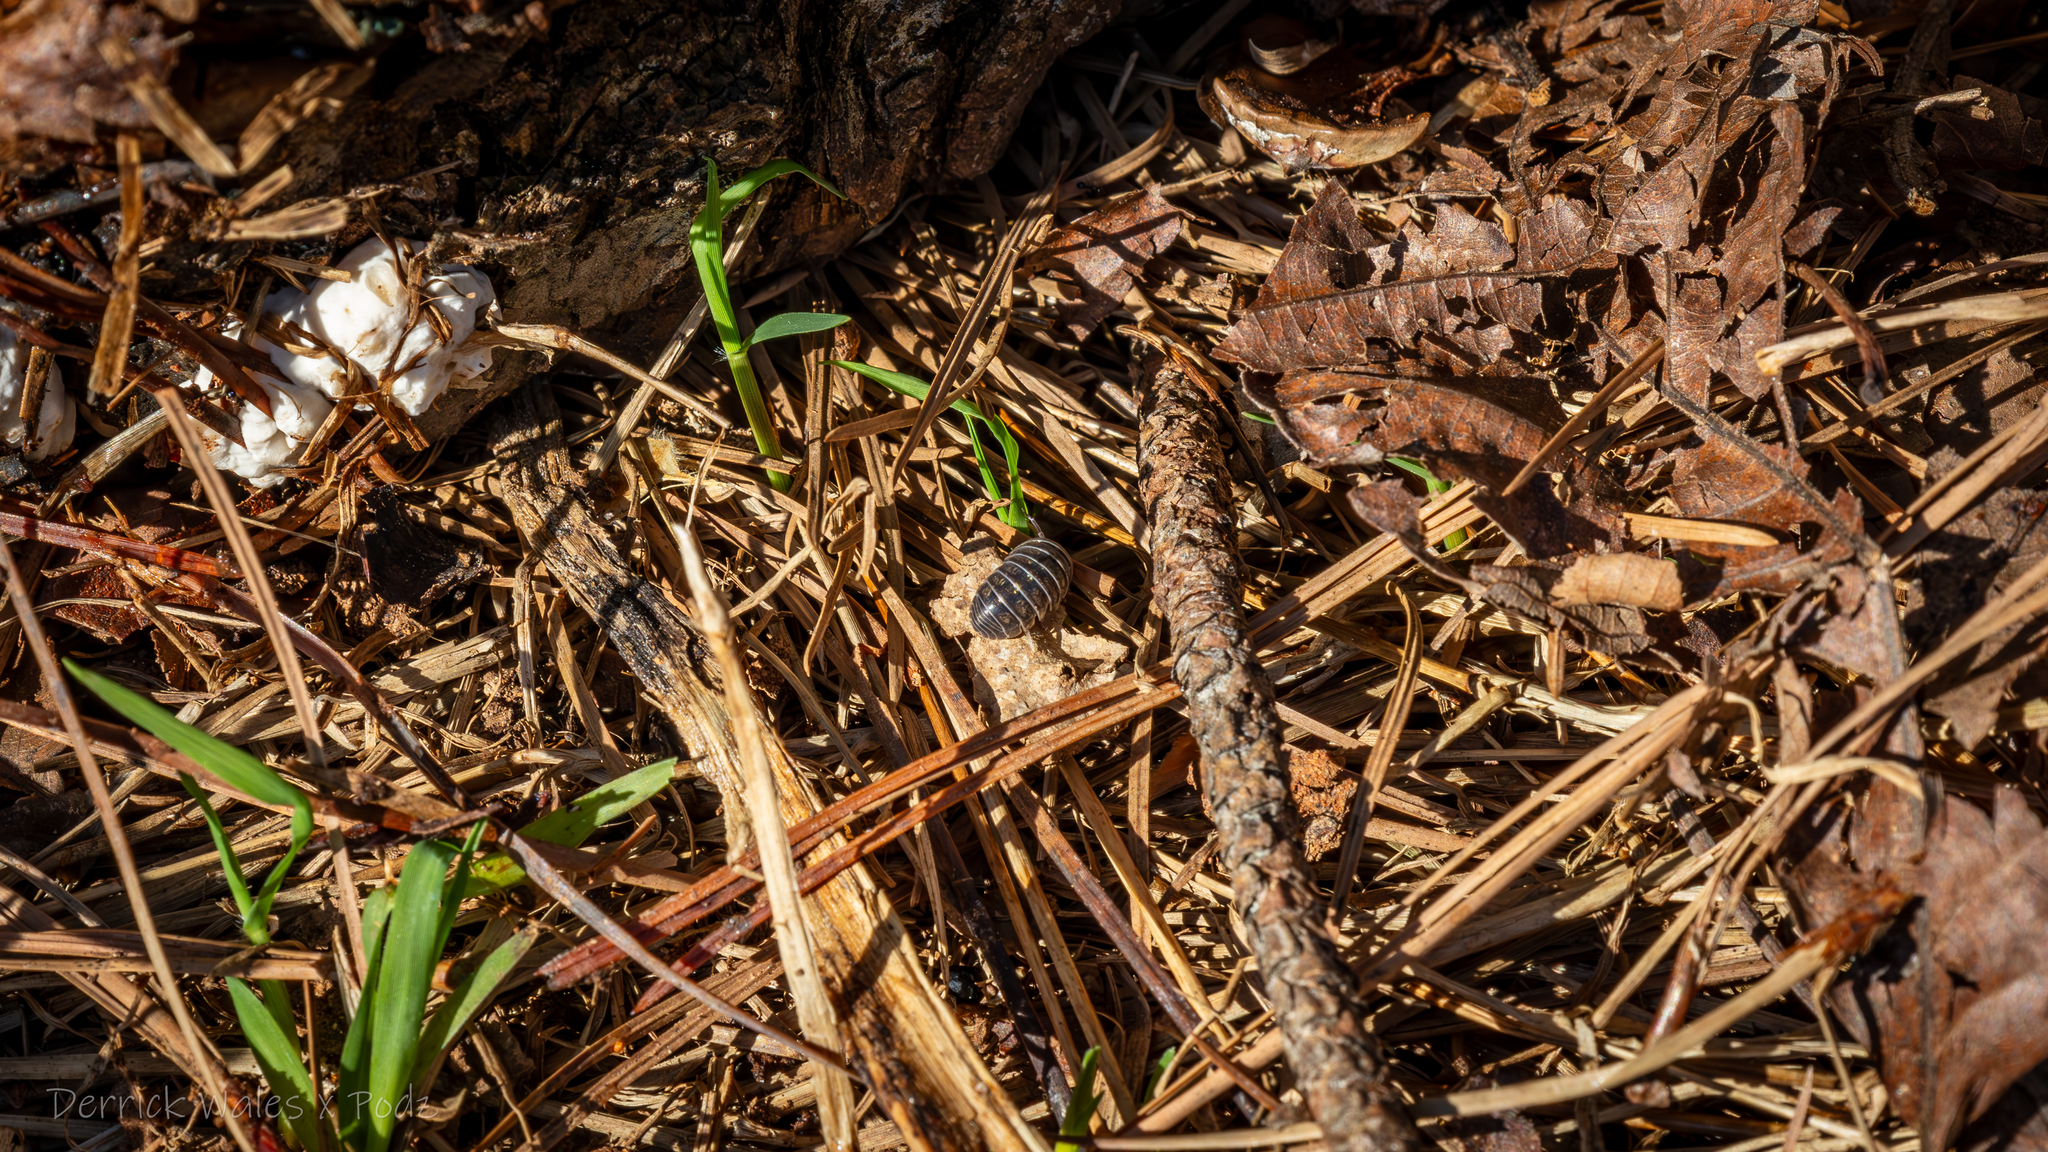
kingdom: Animalia
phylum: Arthropoda
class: Malacostraca
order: Isopoda
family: Armadillidiidae
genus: Armadillidium
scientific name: Armadillidium vulgare
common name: Common pill woodlouse
